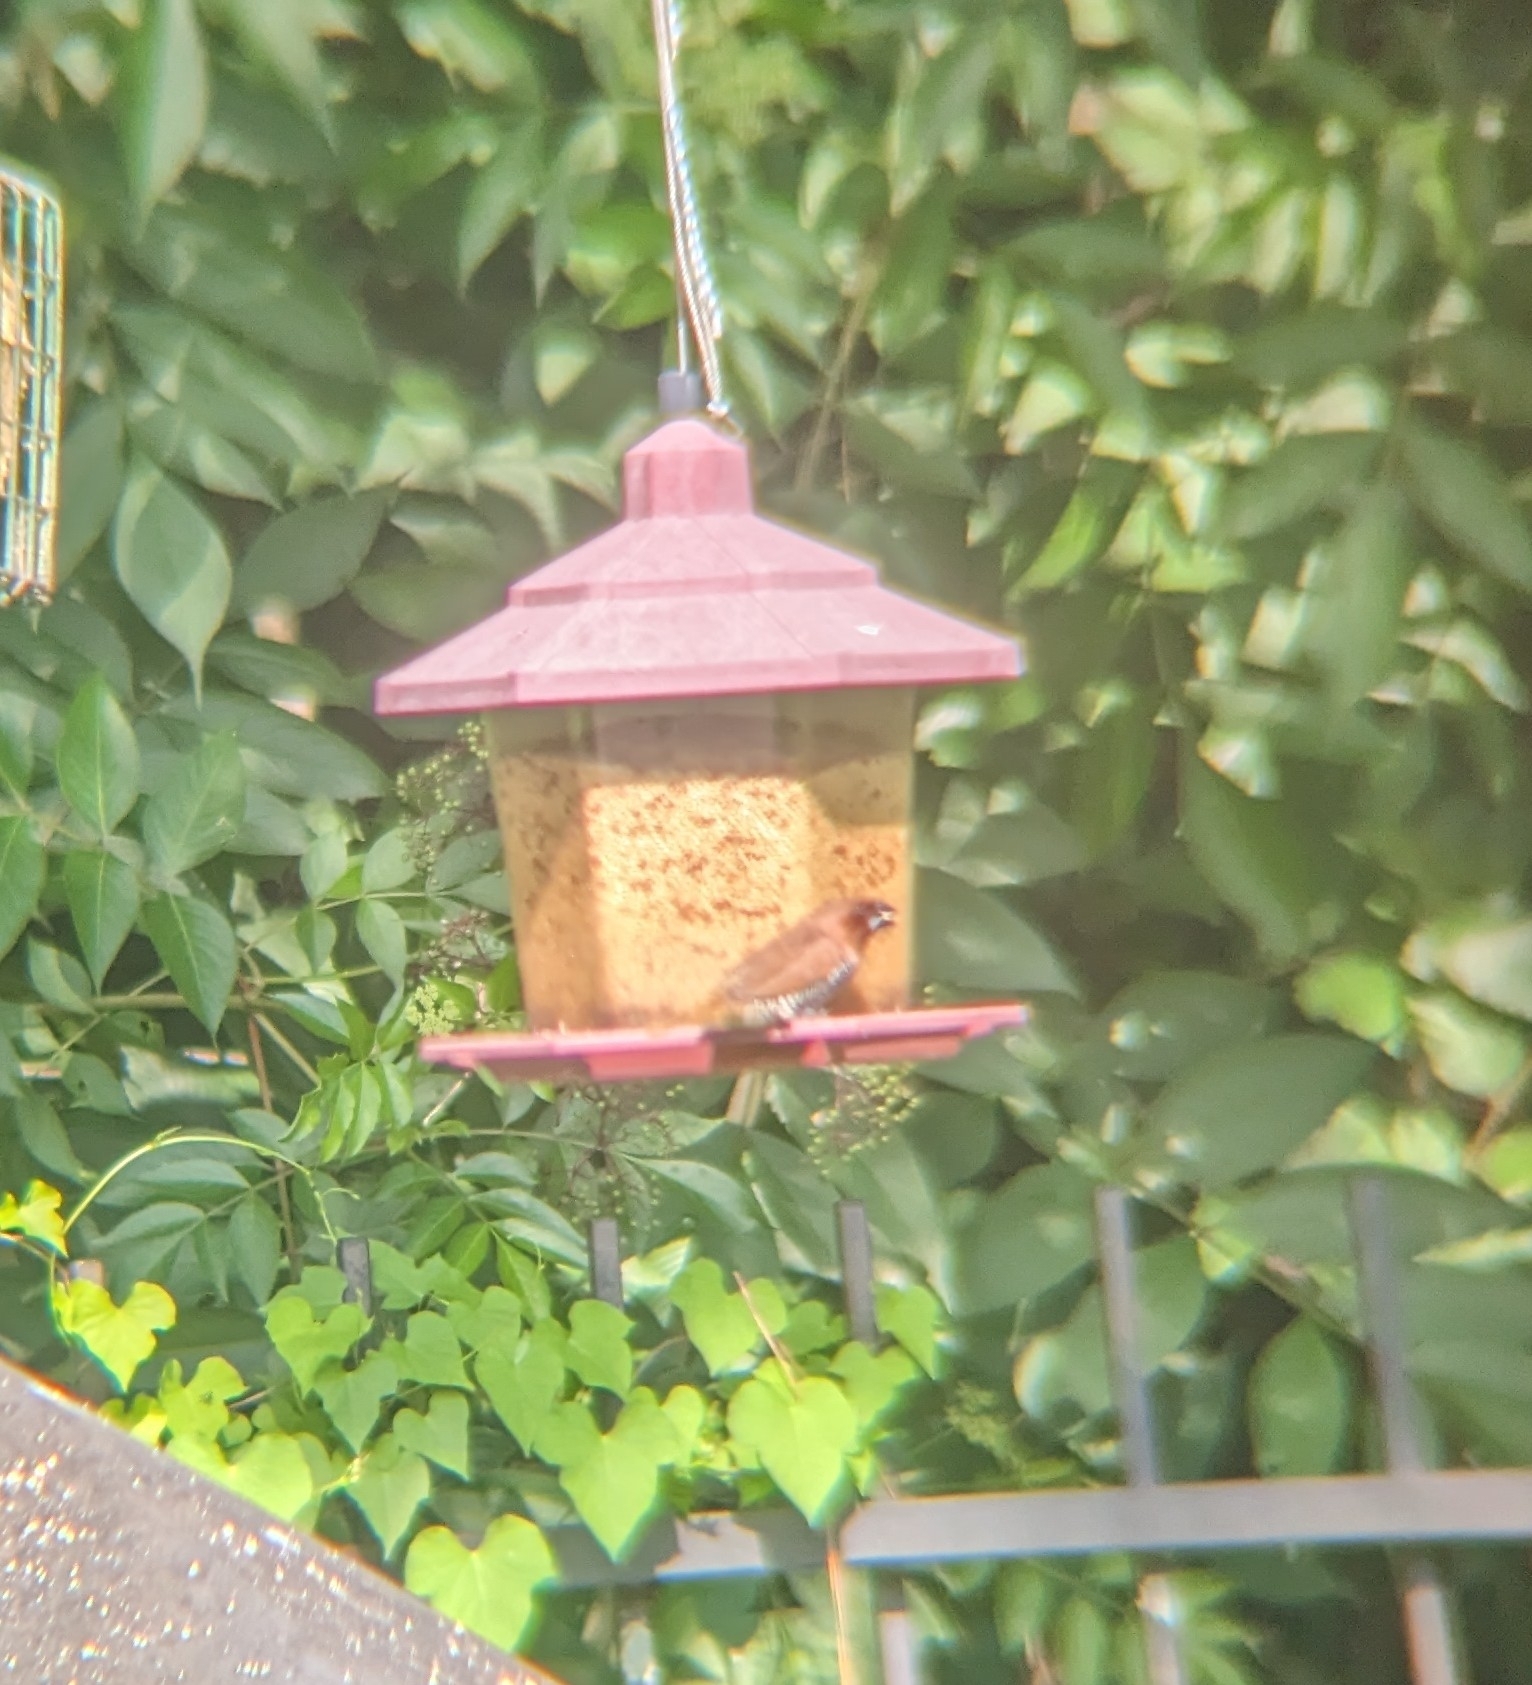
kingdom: Animalia
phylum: Chordata
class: Aves
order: Passeriformes
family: Estrildidae
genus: Lonchura
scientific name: Lonchura punctulata
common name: Scaly-breasted munia
